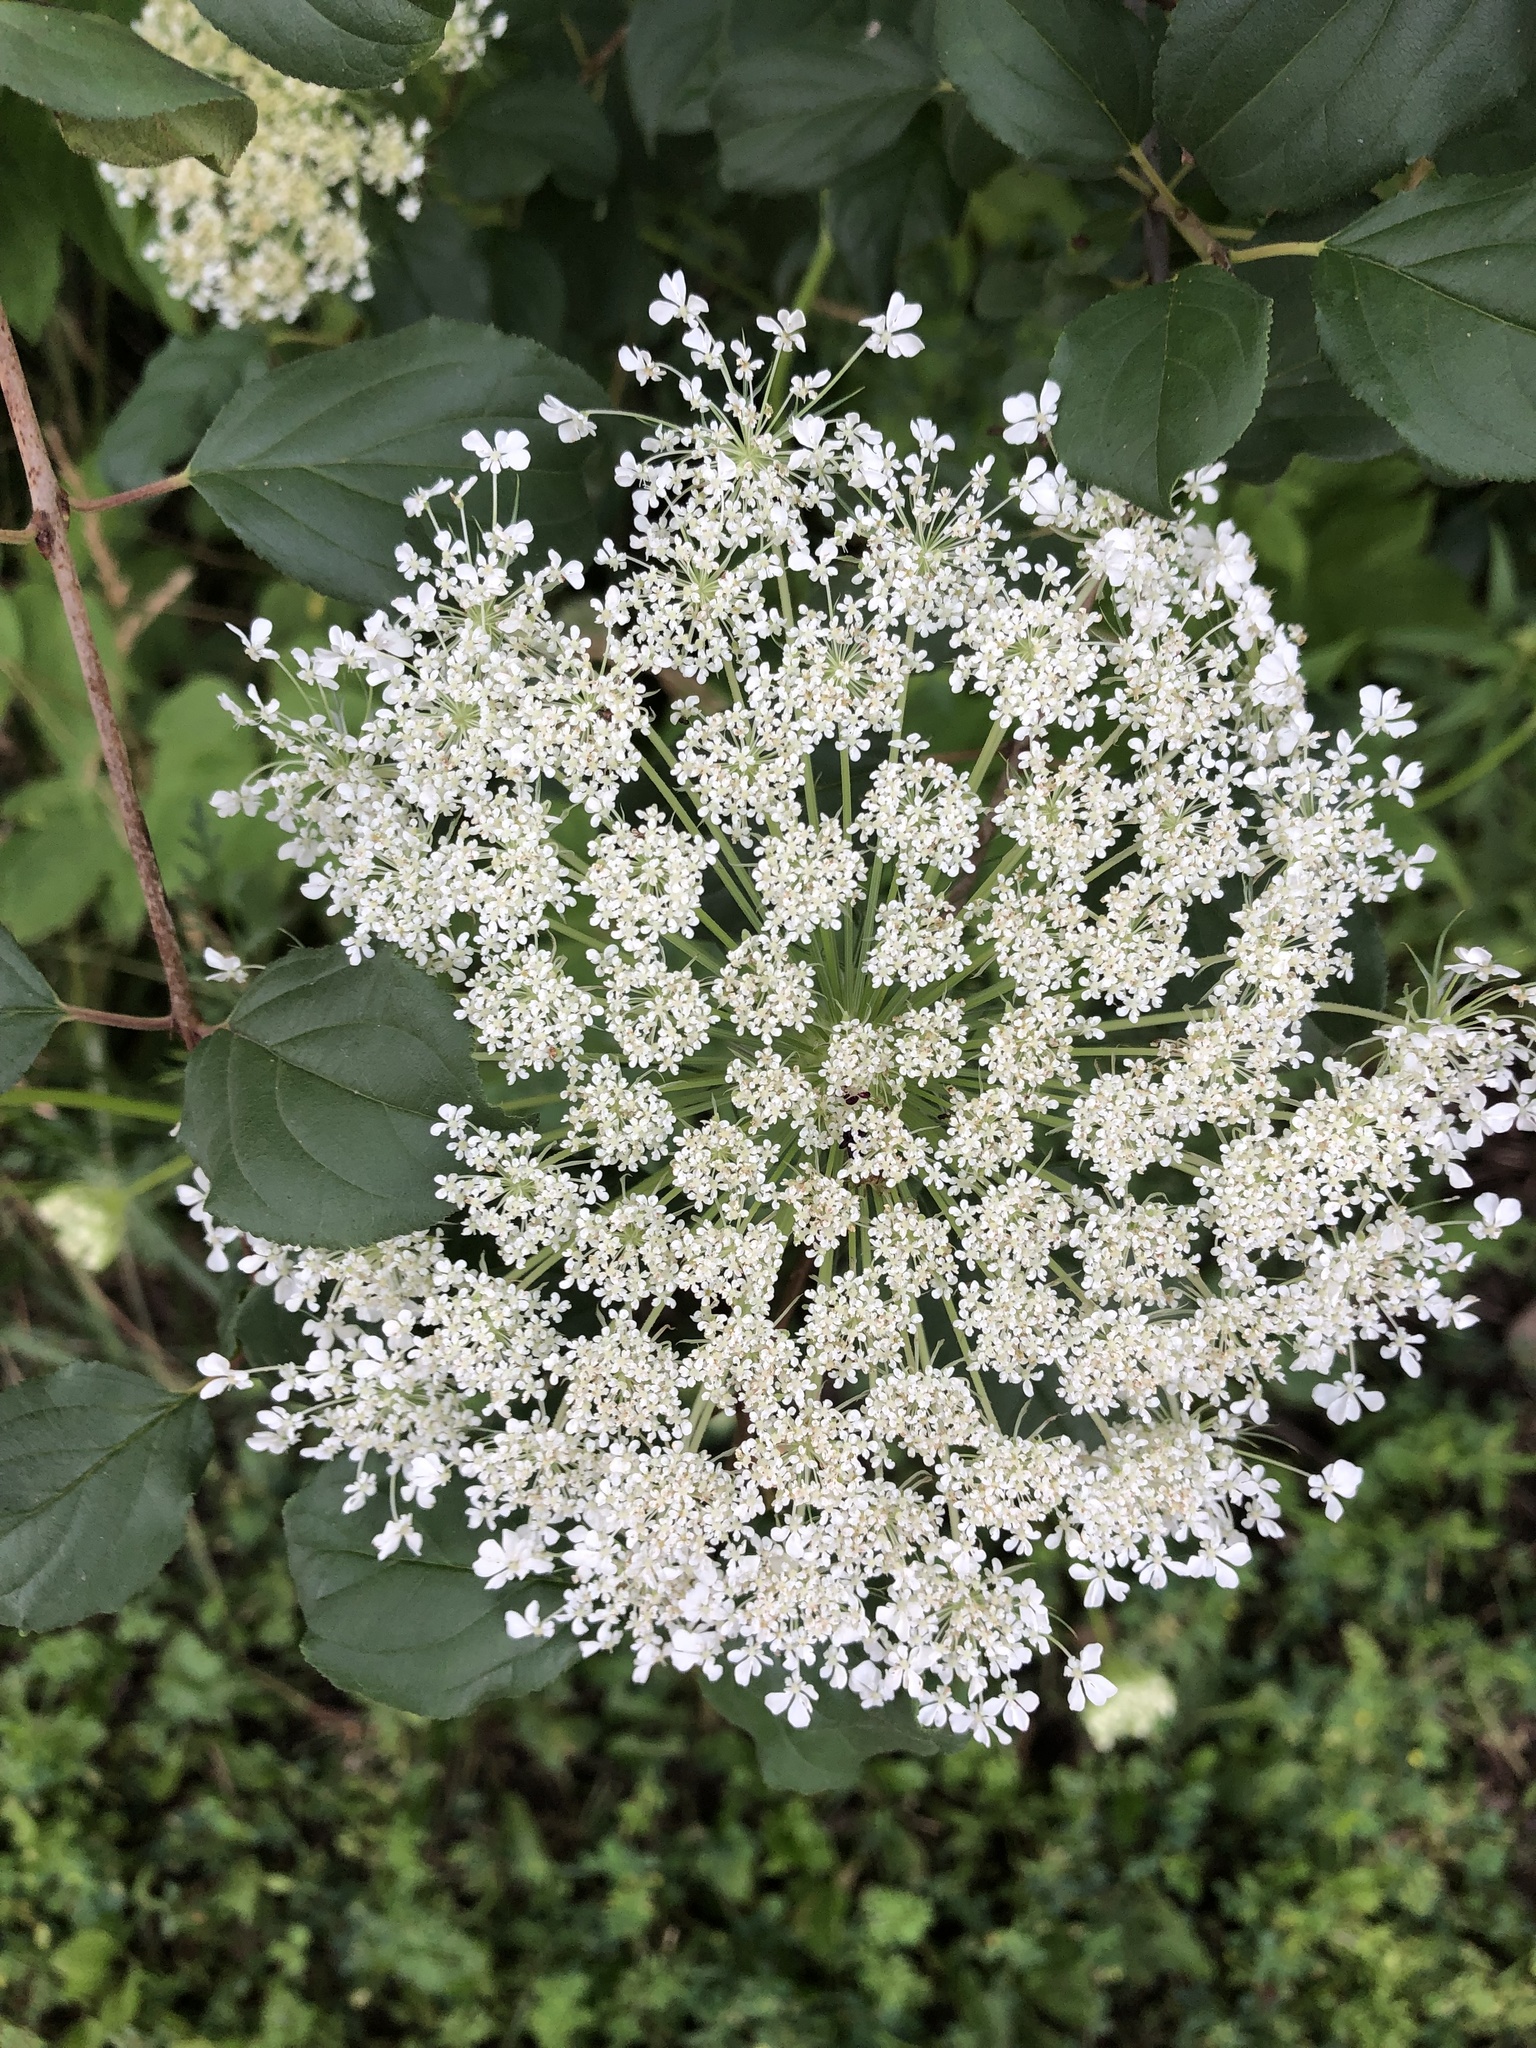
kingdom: Plantae
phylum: Tracheophyta
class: Magnoliopsida
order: Apiales
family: Apiaceae
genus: Daucus
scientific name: Daucus carota
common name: Wild carrot
